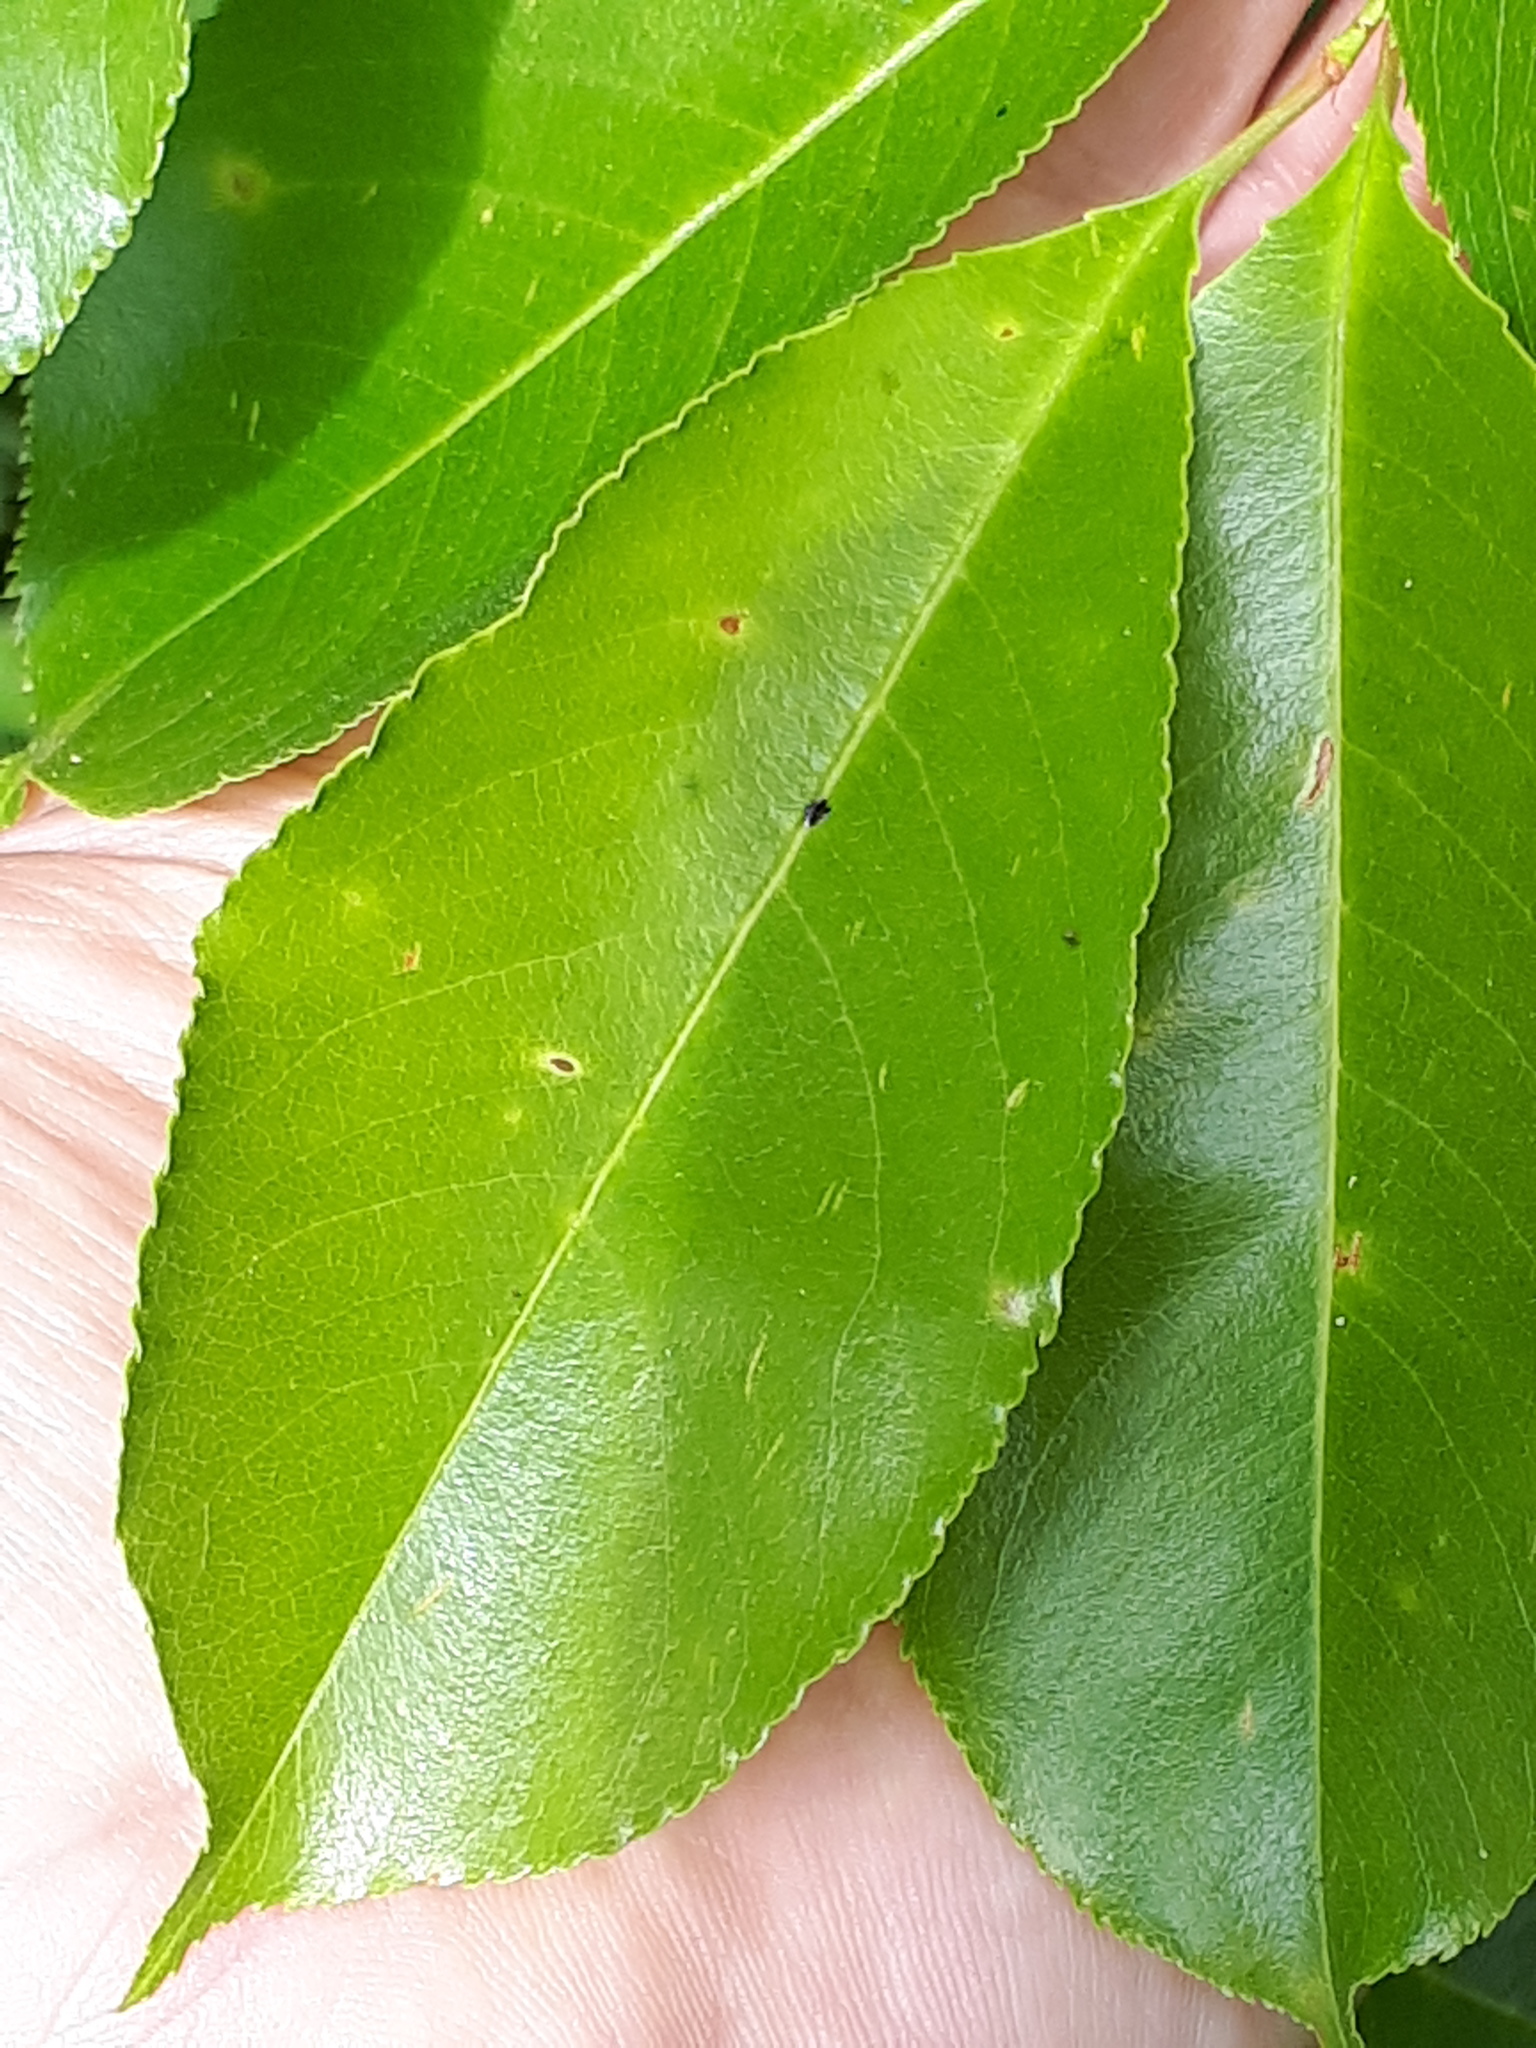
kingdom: Plantae
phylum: Tracheophyta
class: Magnoliopsida
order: Rosales
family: Rosaceae
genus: Prunus
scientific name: Prunus serotina
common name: Black cherry
